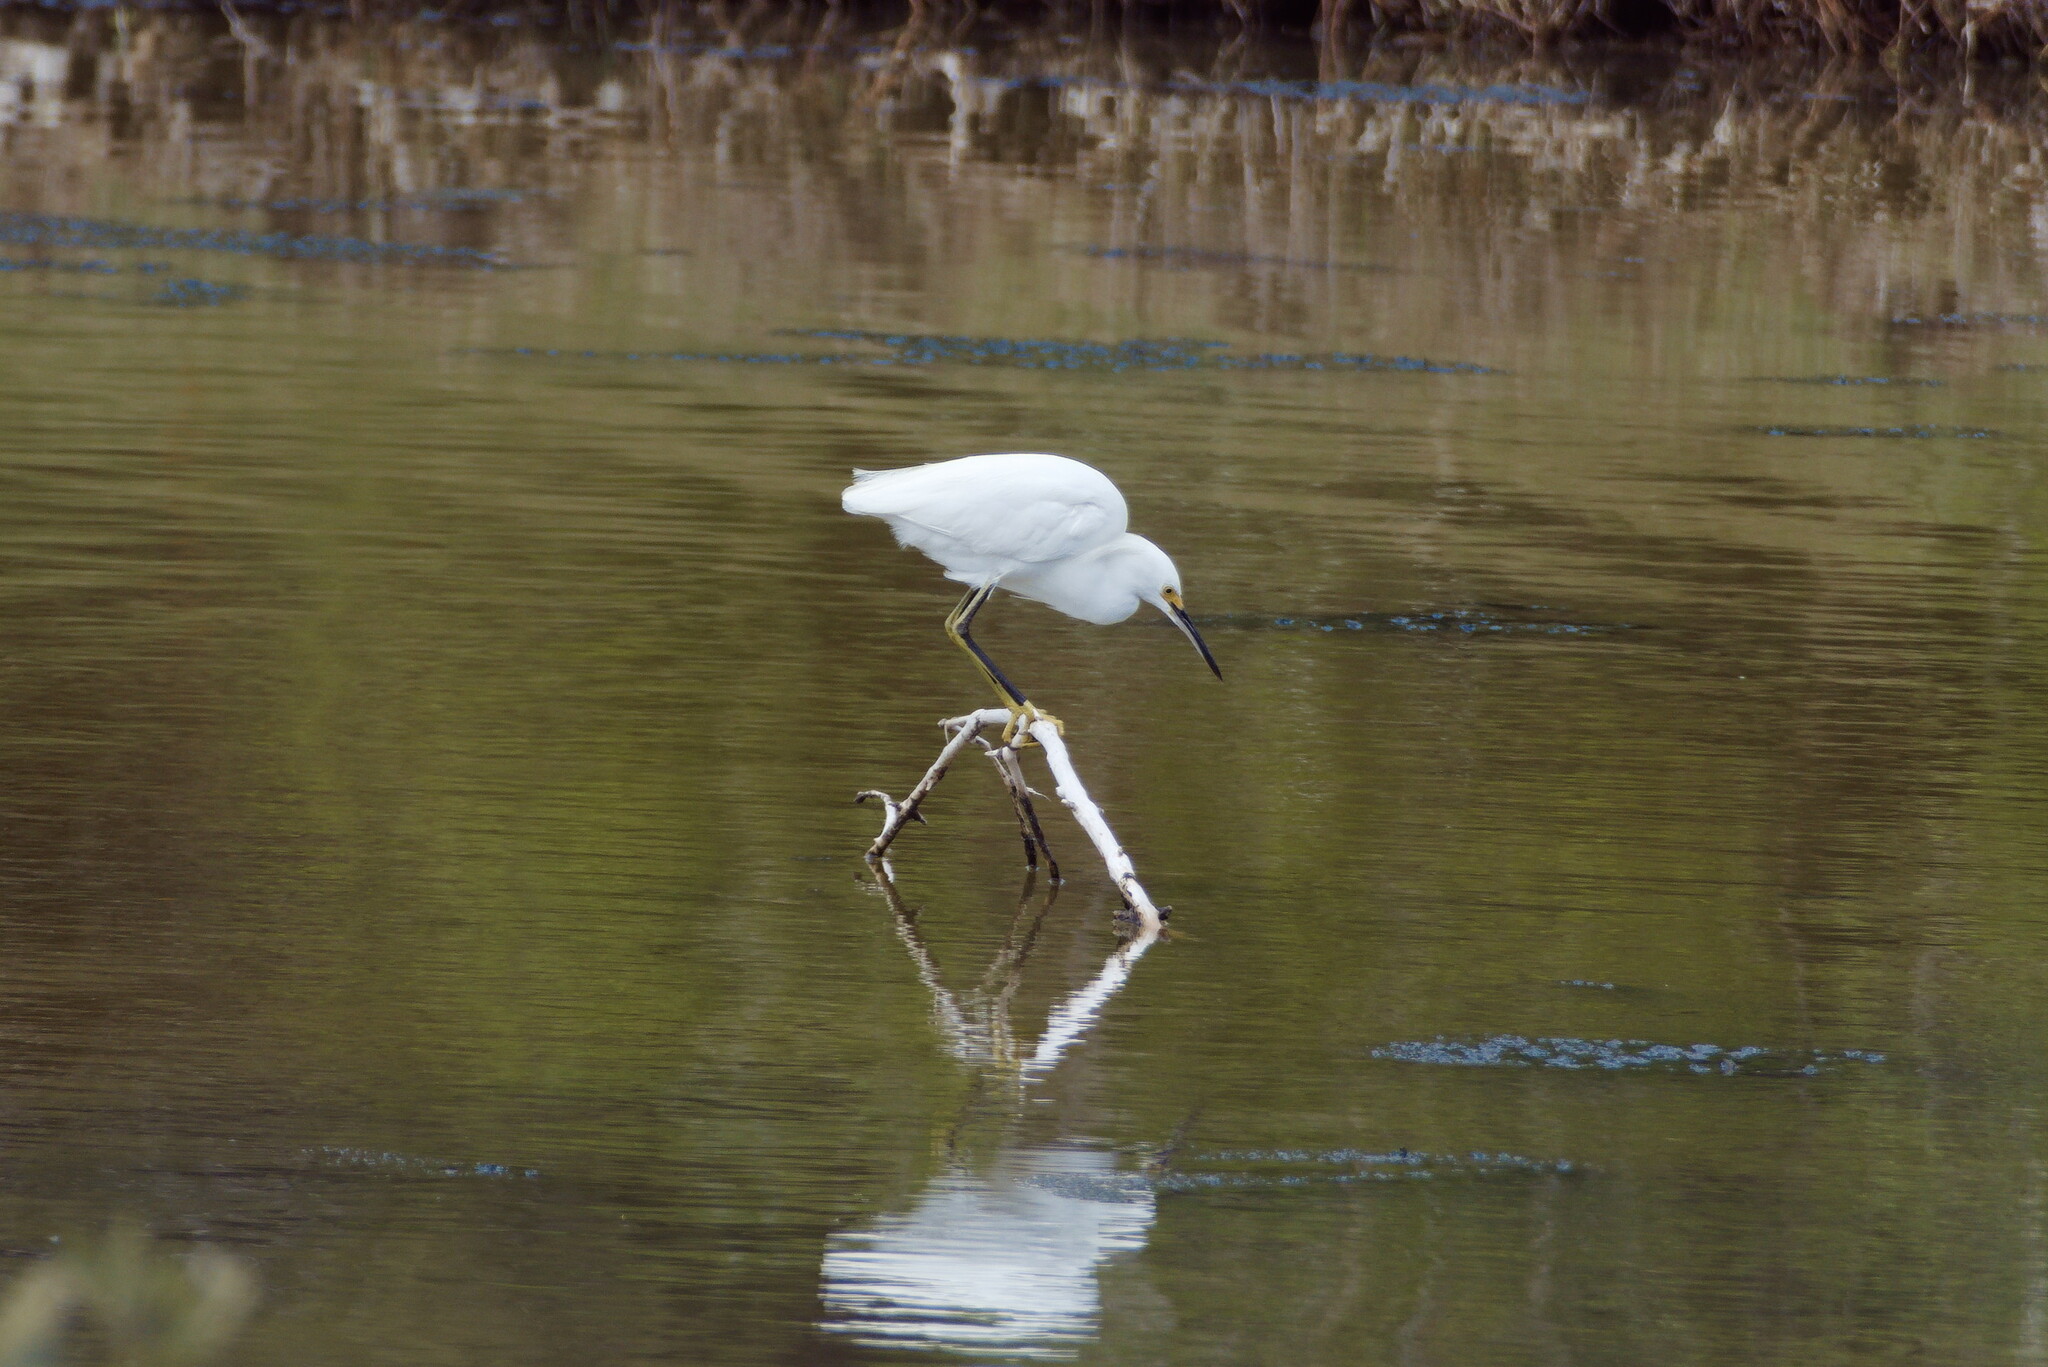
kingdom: Animalia
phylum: Chordata
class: Aves
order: Pelecaniformes
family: Ardeidae
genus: Egretta
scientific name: Egretta thula
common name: Snowy egret
